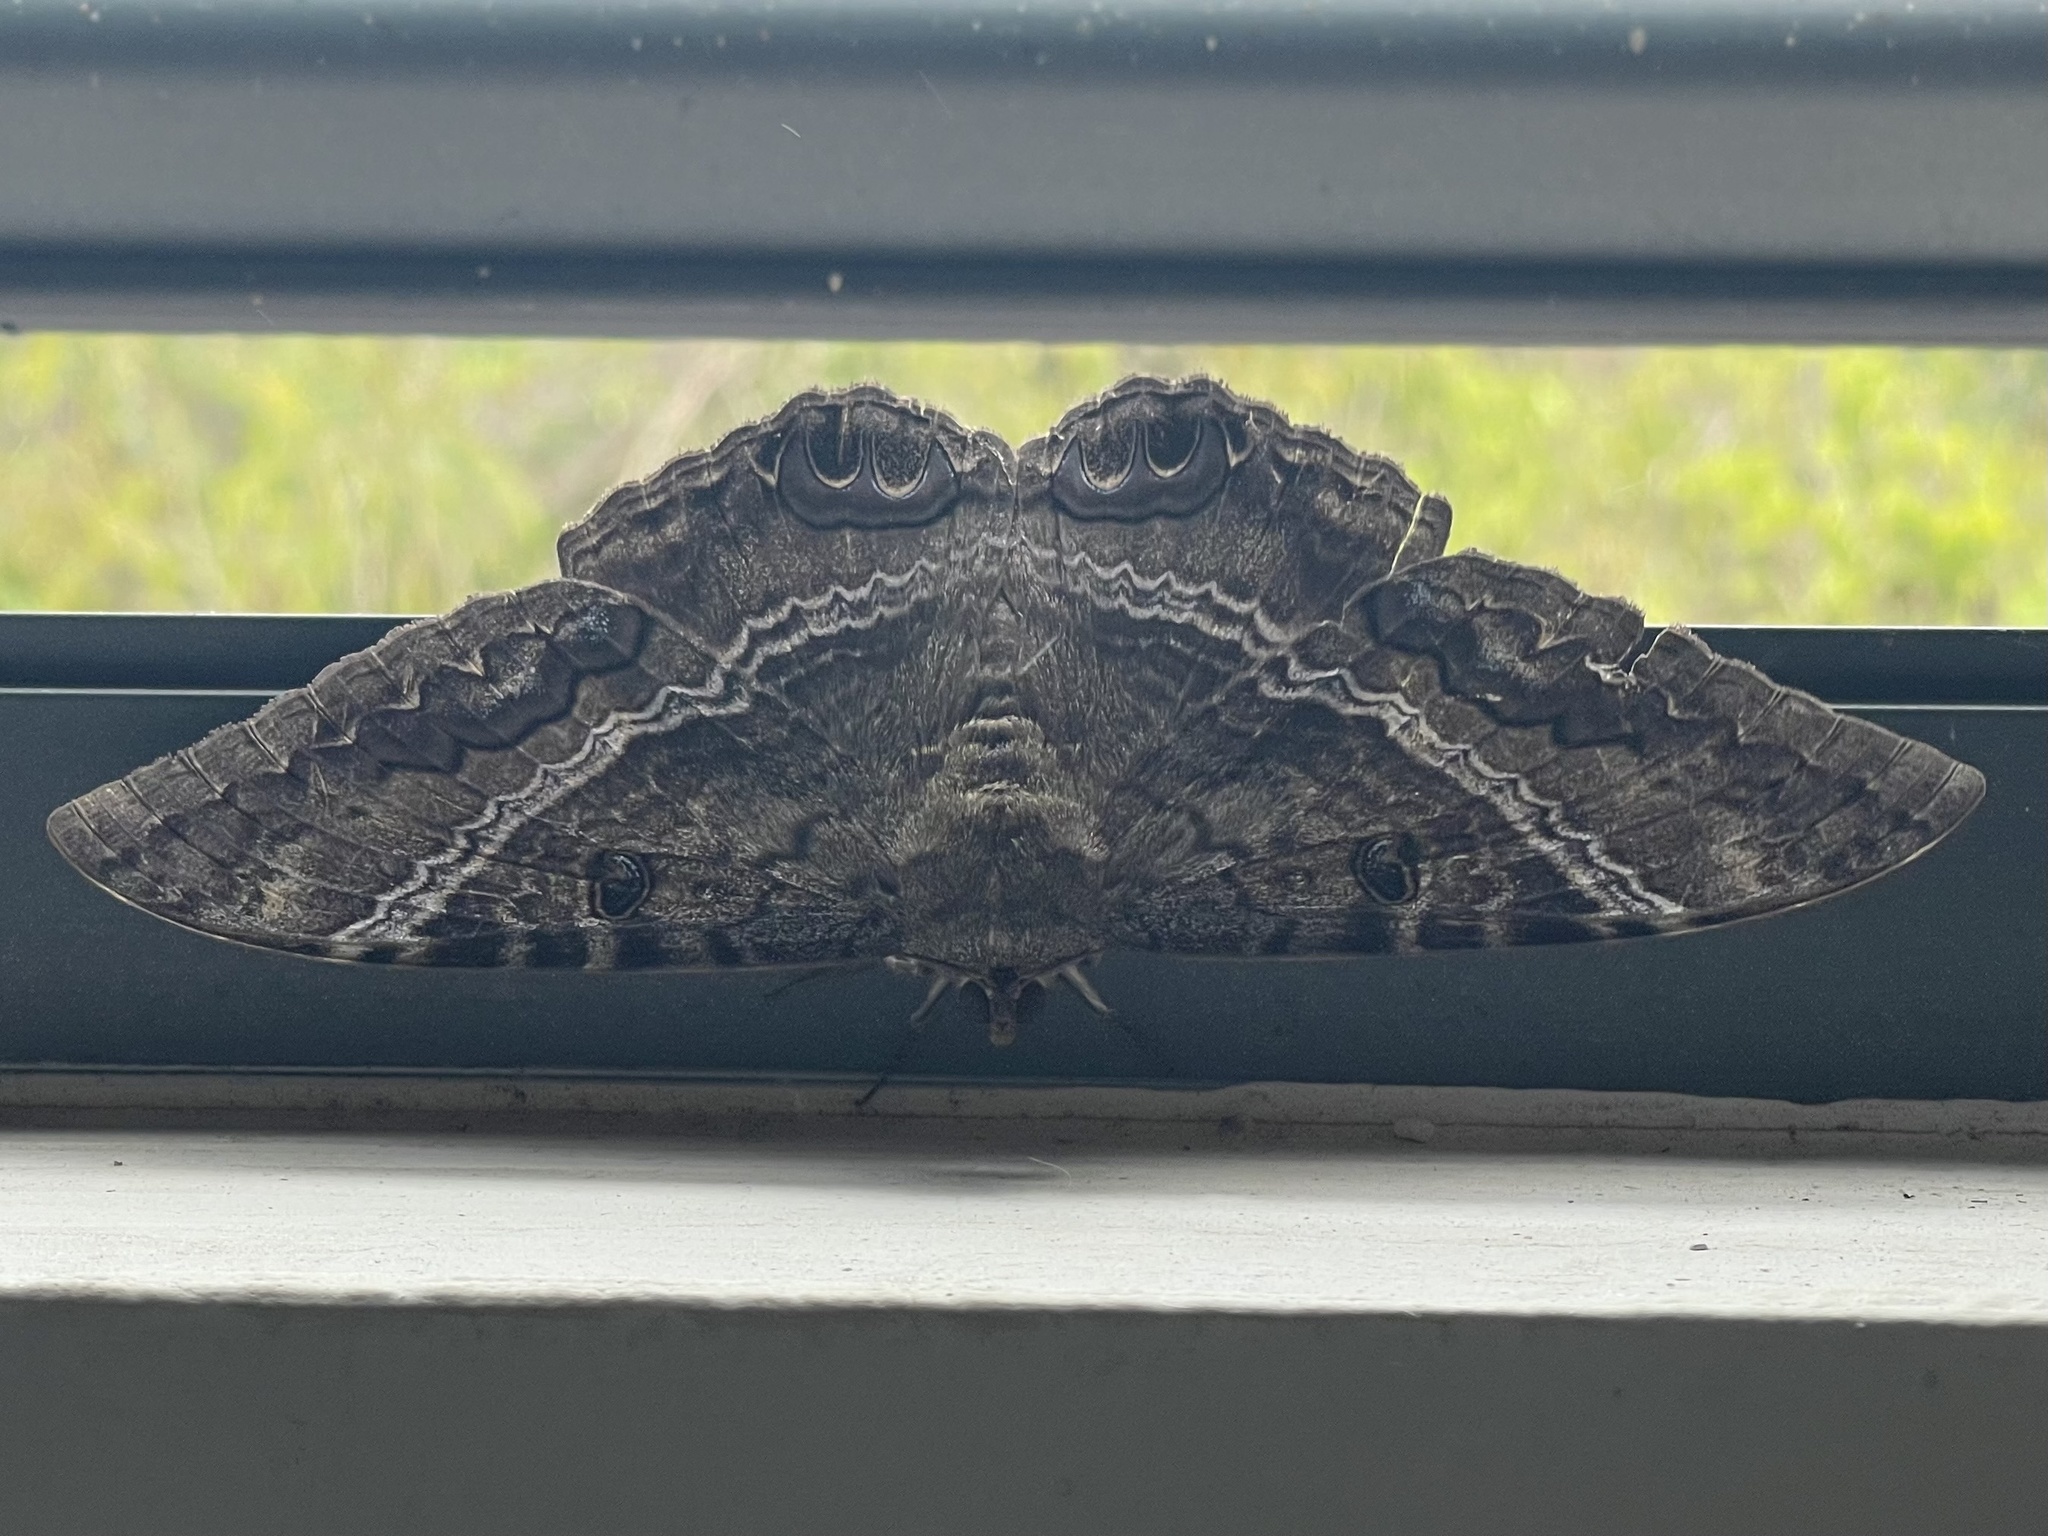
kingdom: Animalia
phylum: Arthropoda
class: Insecta
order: Lepidoptera
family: Erebidae
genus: Ascalapha
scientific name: Ascalapha odorata
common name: Black witch
